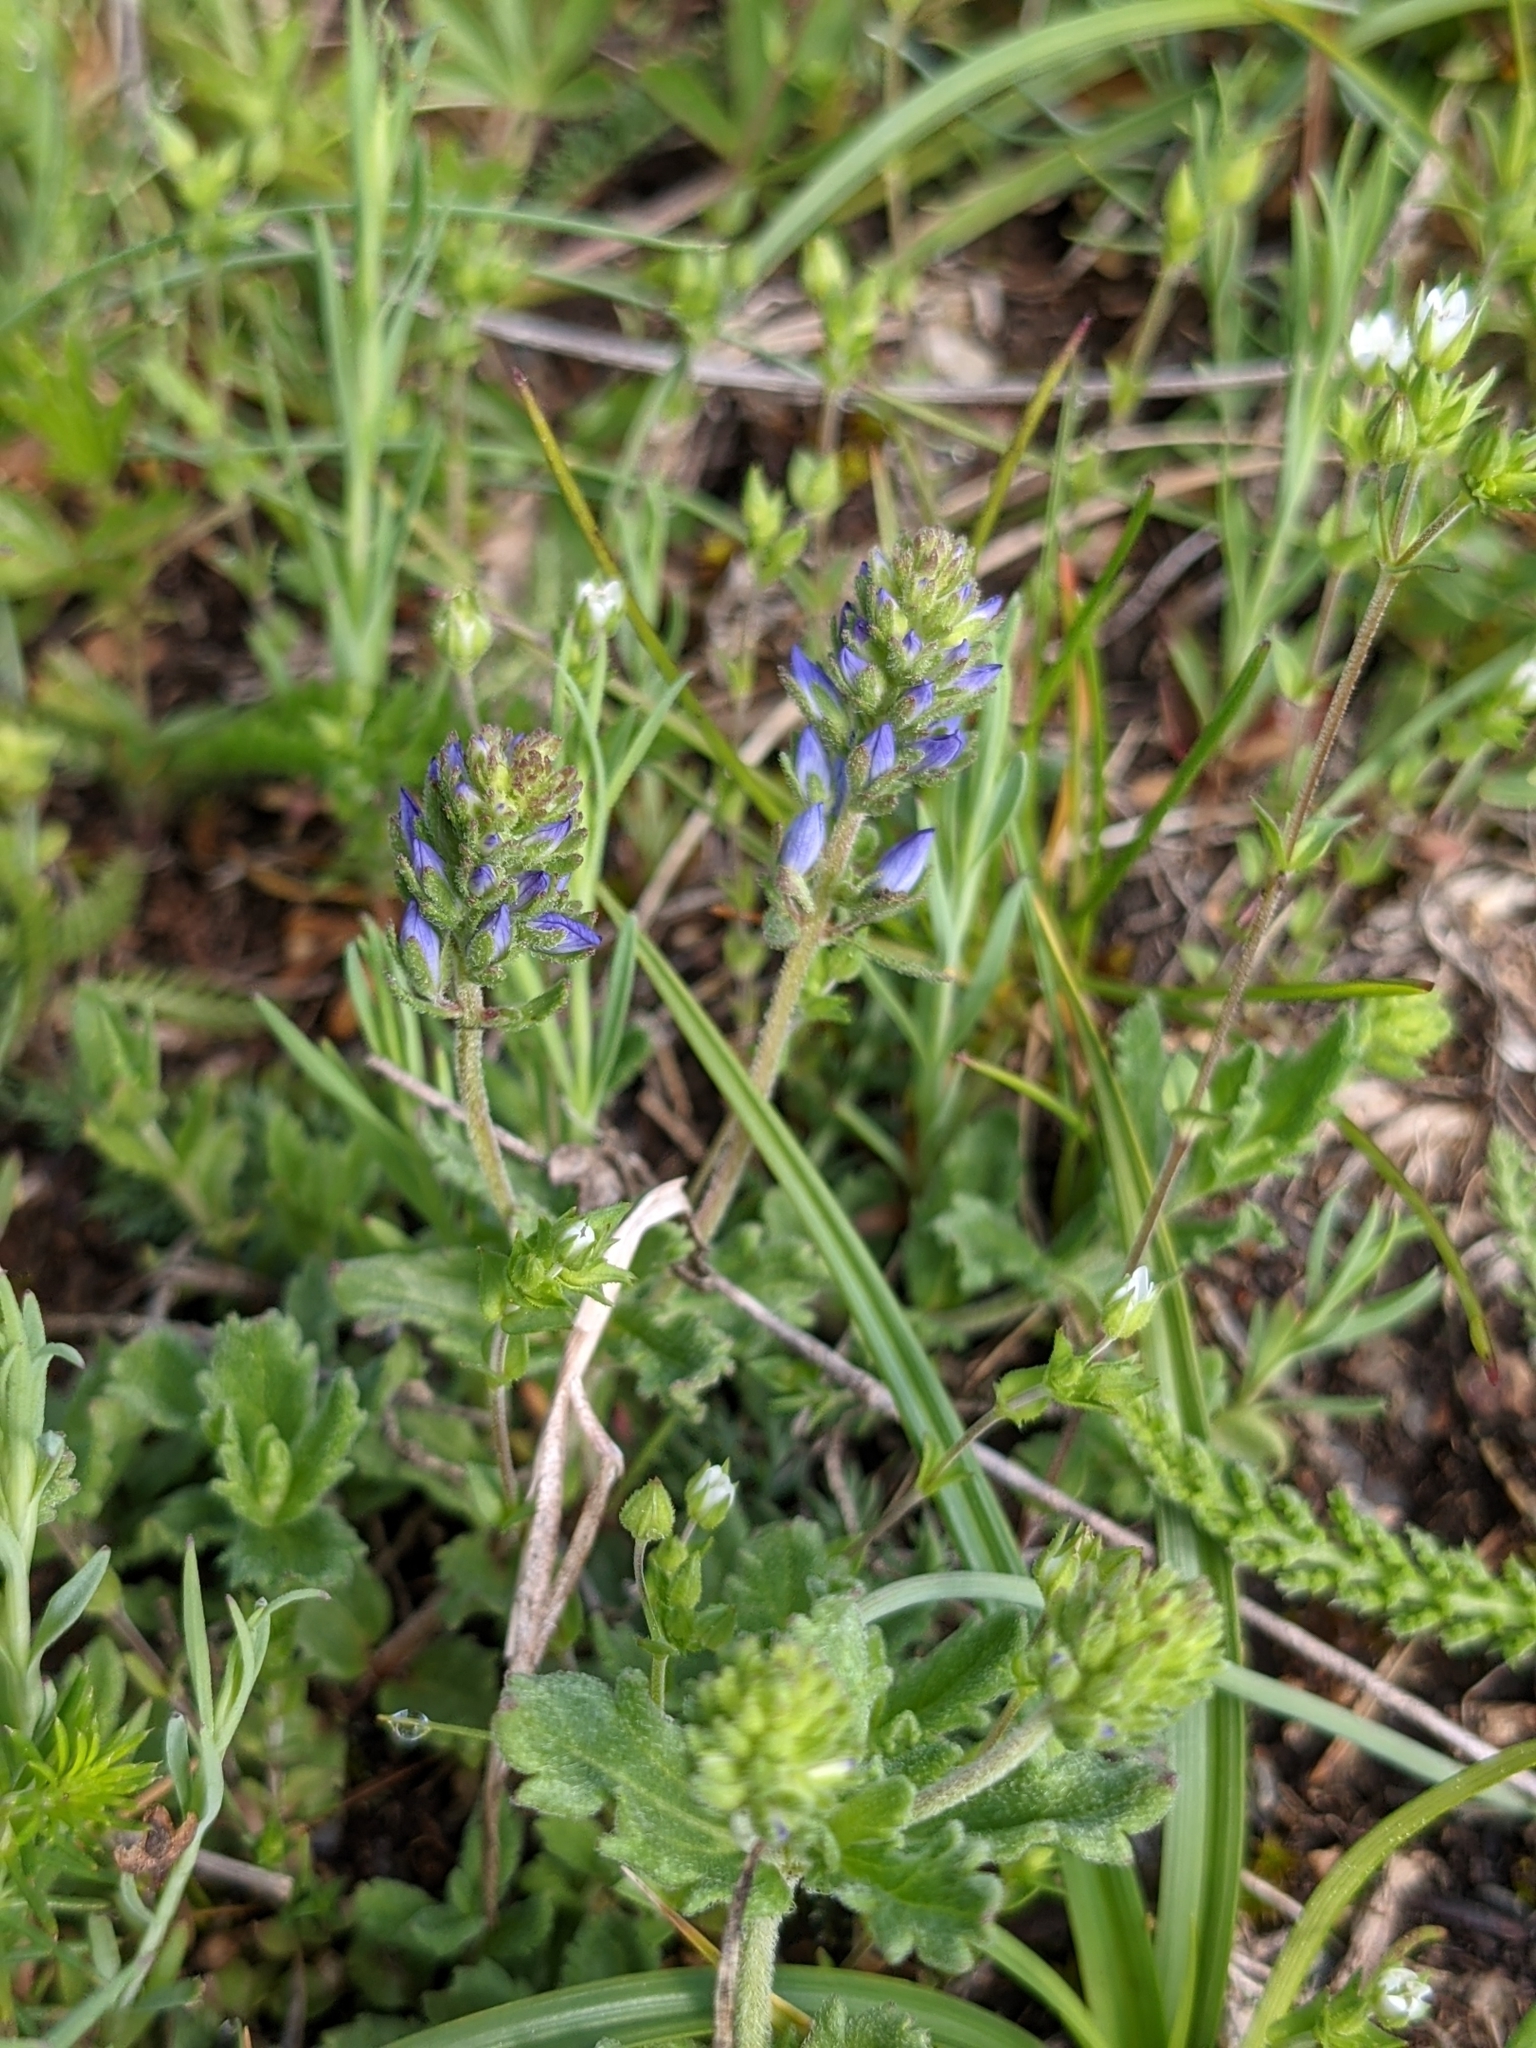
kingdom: Plantae
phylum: Tracheophyta
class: Magnoliopsida
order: Lamiales
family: Plantaginaceae
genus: Veronica
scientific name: Veronica orsiniana
